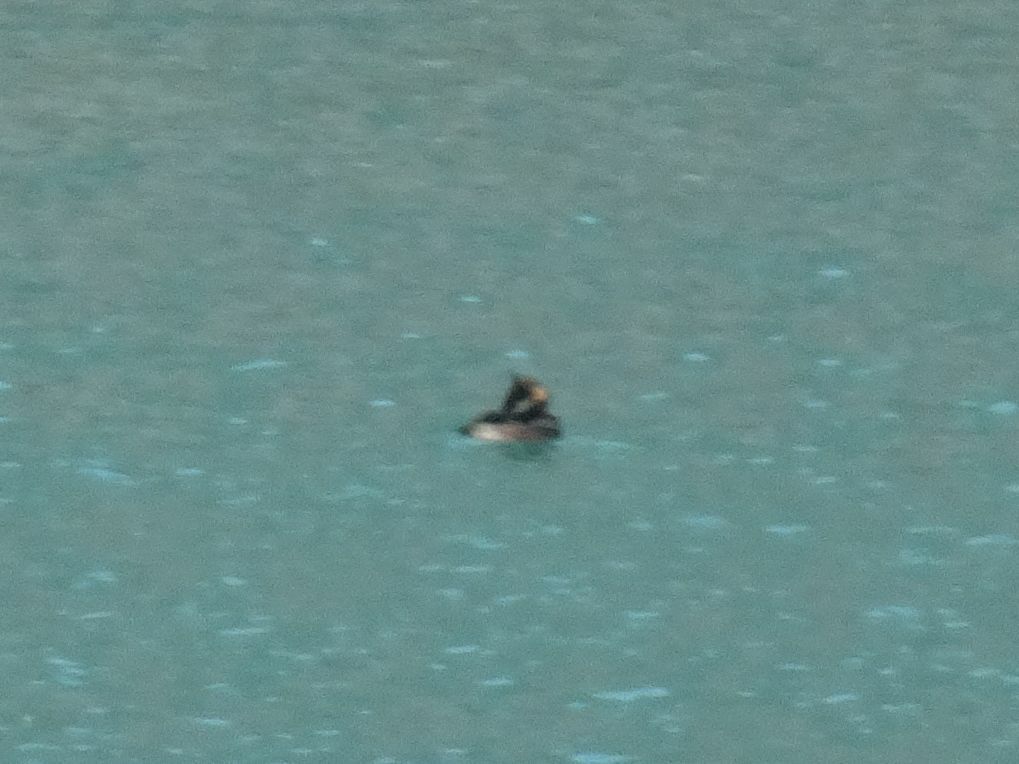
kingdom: Animalia
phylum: Chordata
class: Aves
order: Podicipediformes
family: Podicipedidae
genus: Podiceps
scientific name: Podiceps cristatus
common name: Great crested grebe
